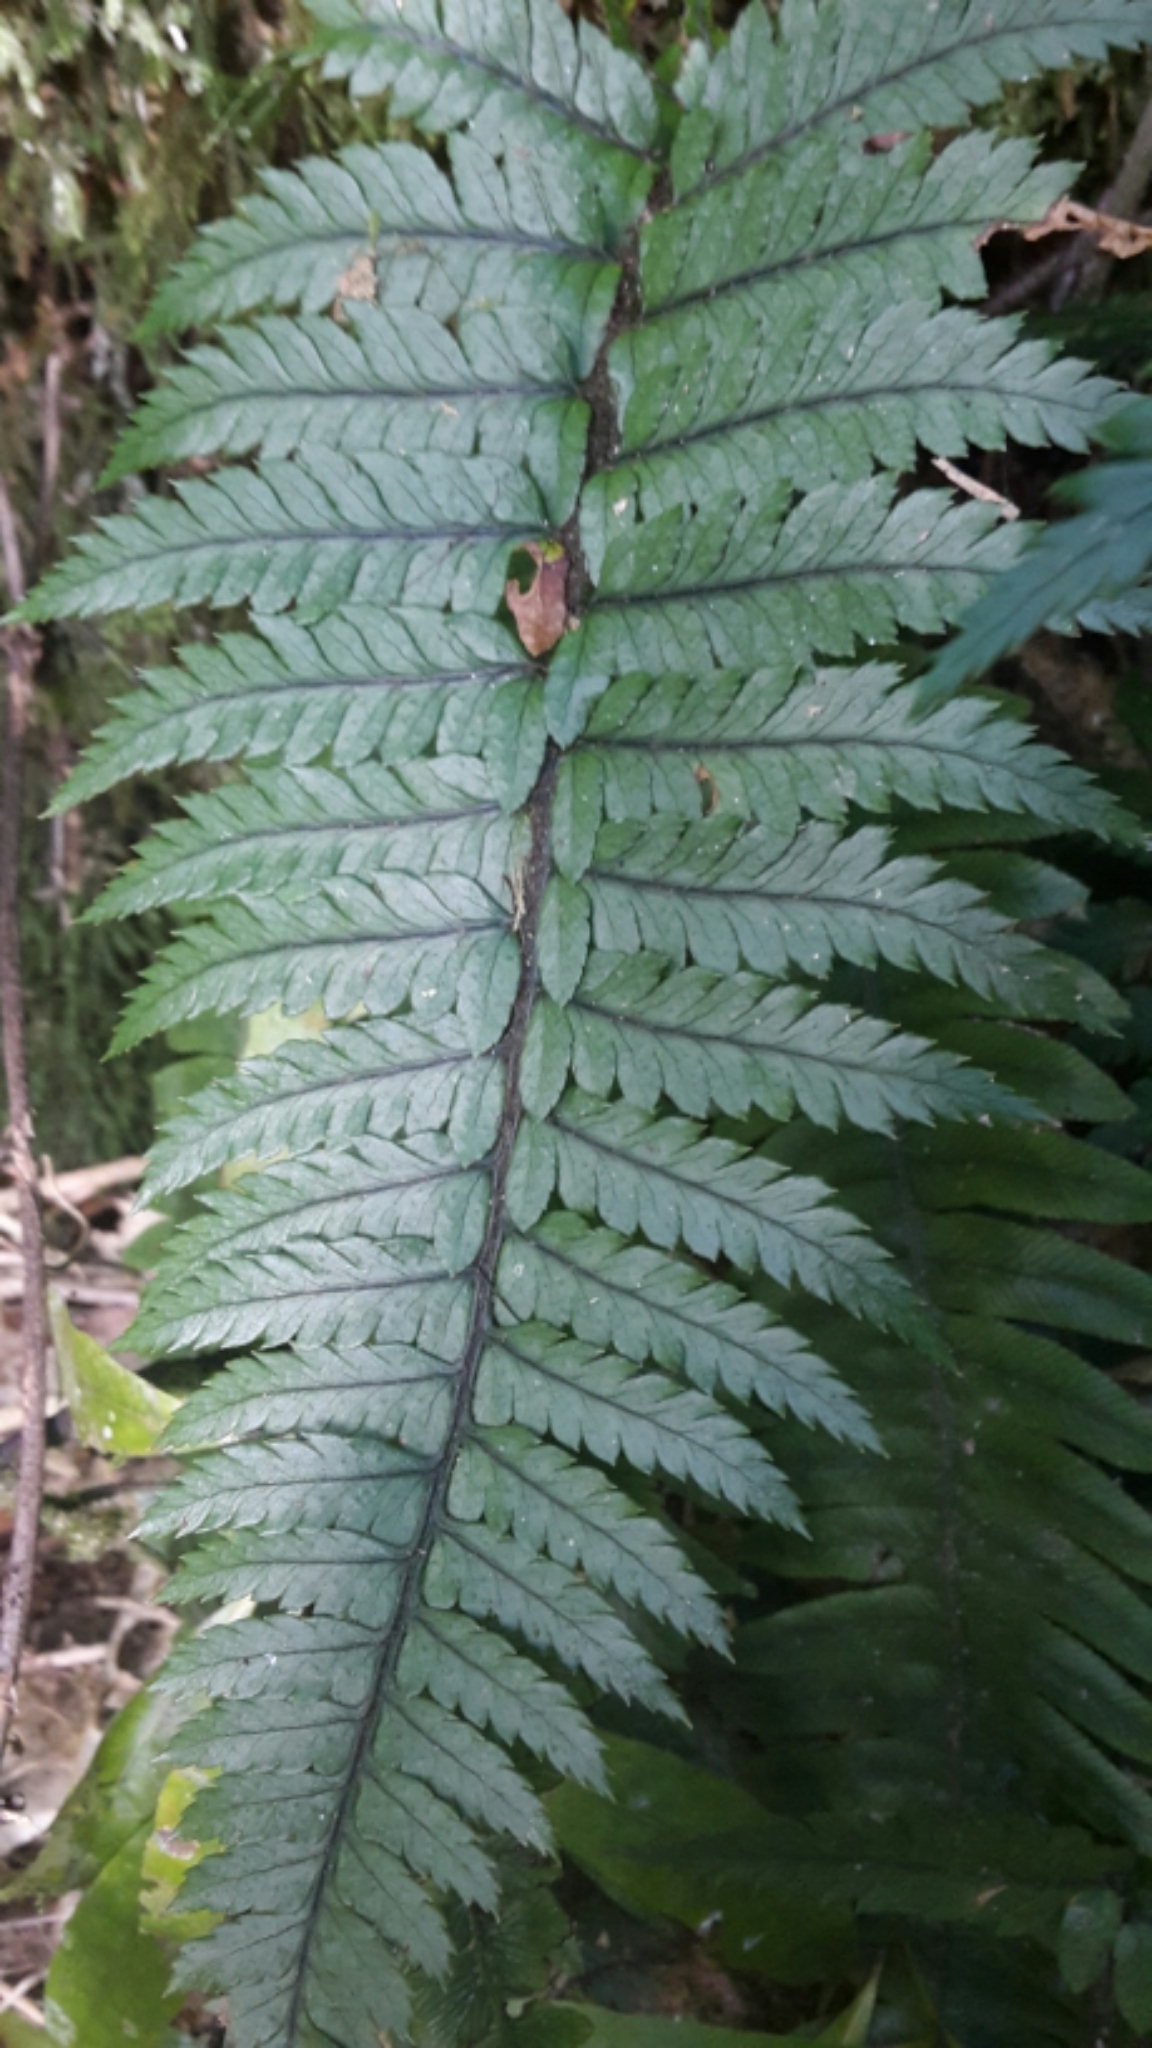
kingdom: Plantae
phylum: Tracheophyta
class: Polypodiopsida
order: Polypodiales
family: Dryopteridaceae
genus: Polystichum
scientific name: Polystichum wawranum
